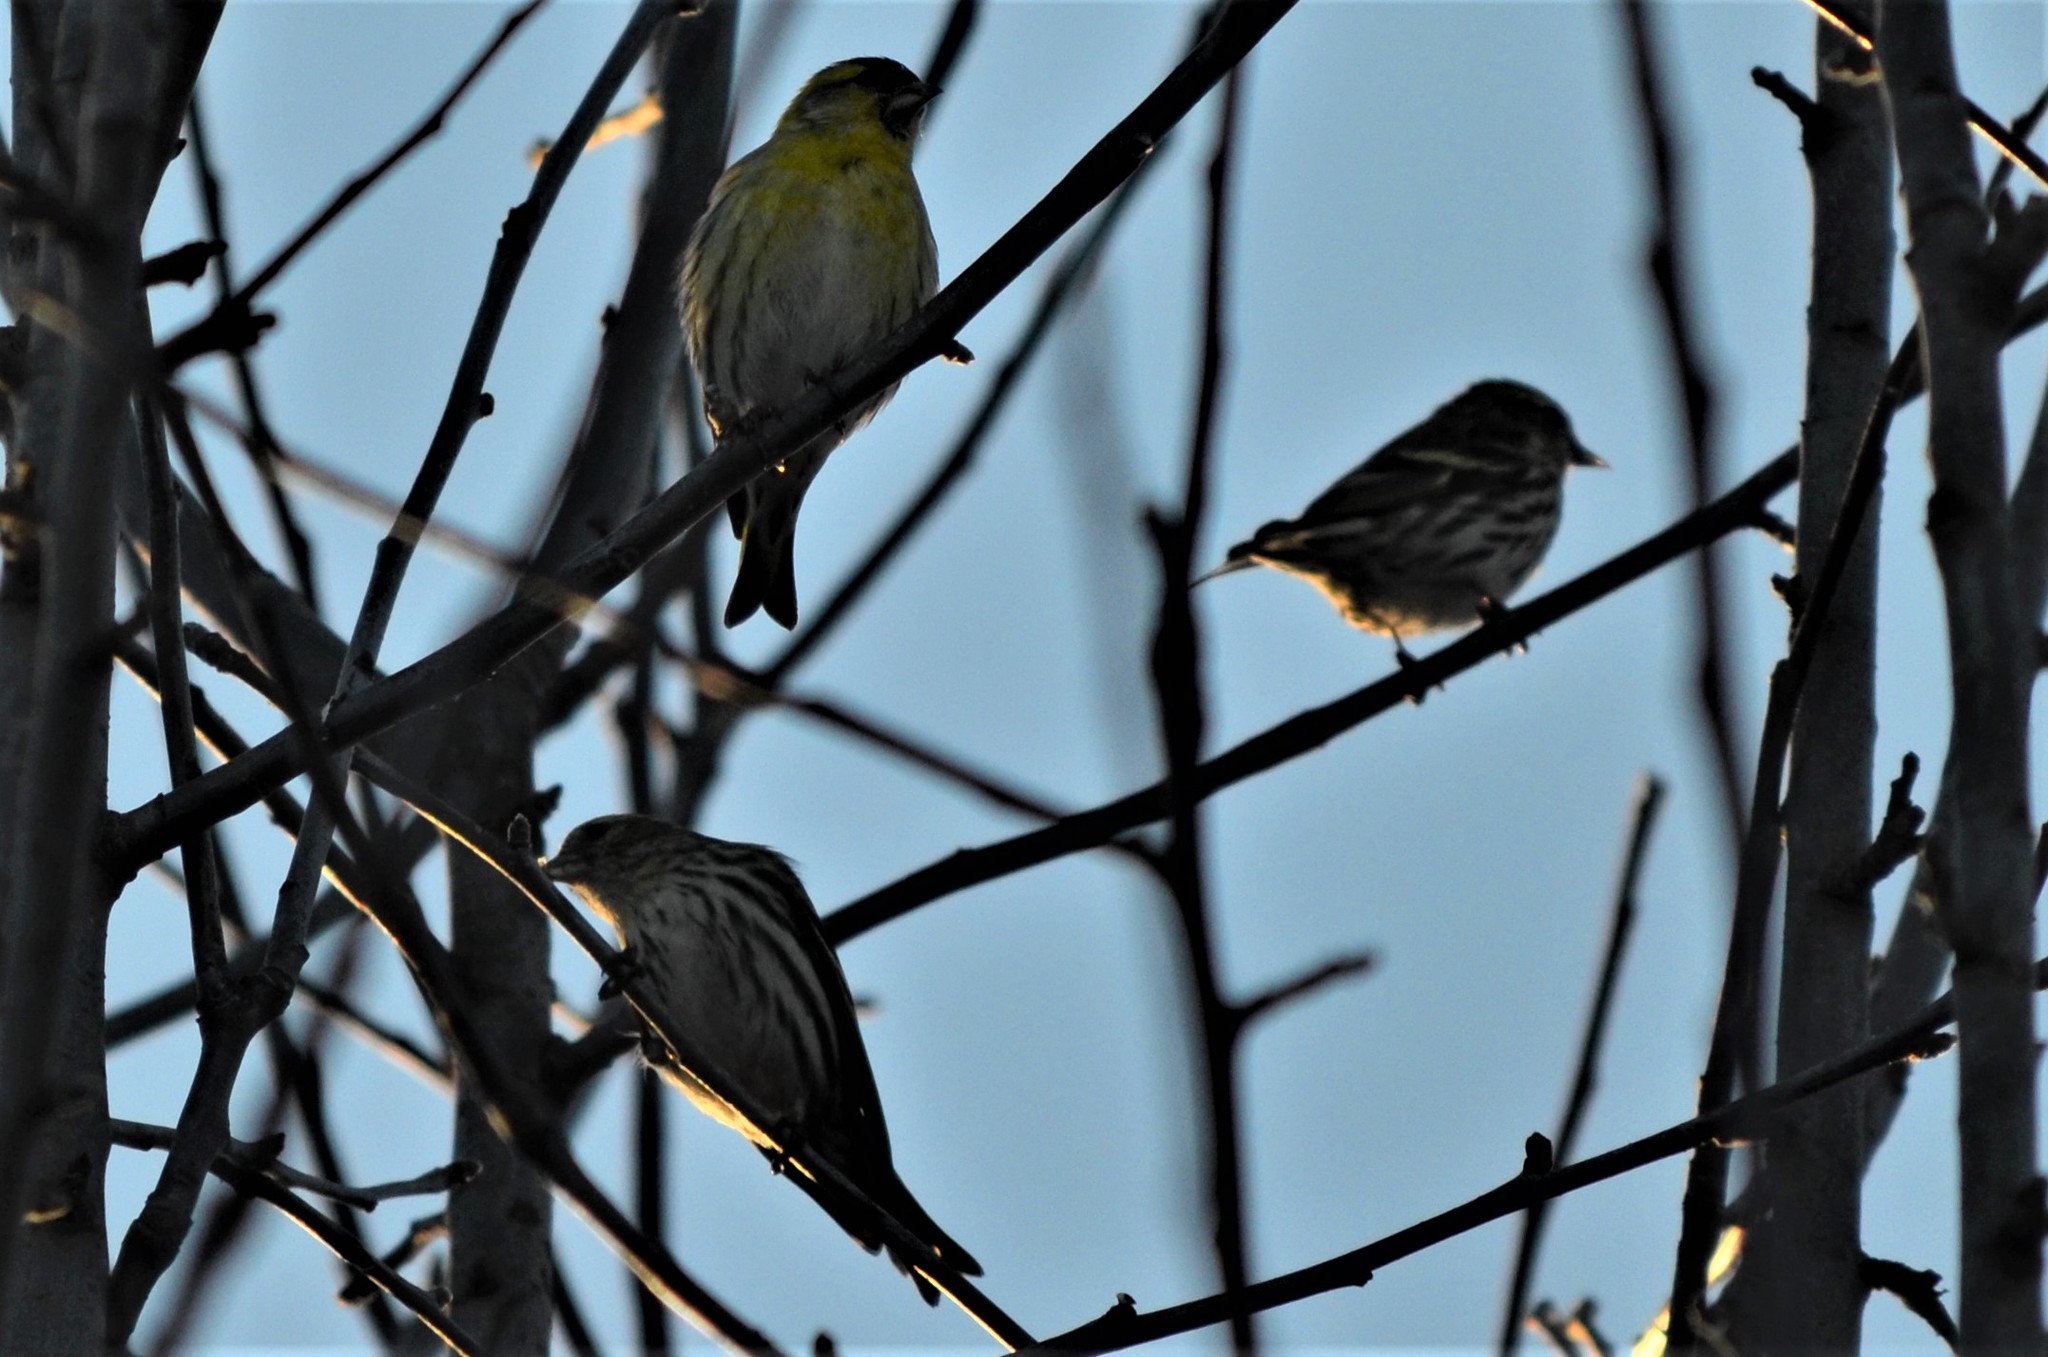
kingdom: Animalia
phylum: Chordata
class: Aves
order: Passeriformes
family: Fringillidae
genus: Spinus
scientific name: Spinus spinus
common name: Eurasian siskin
